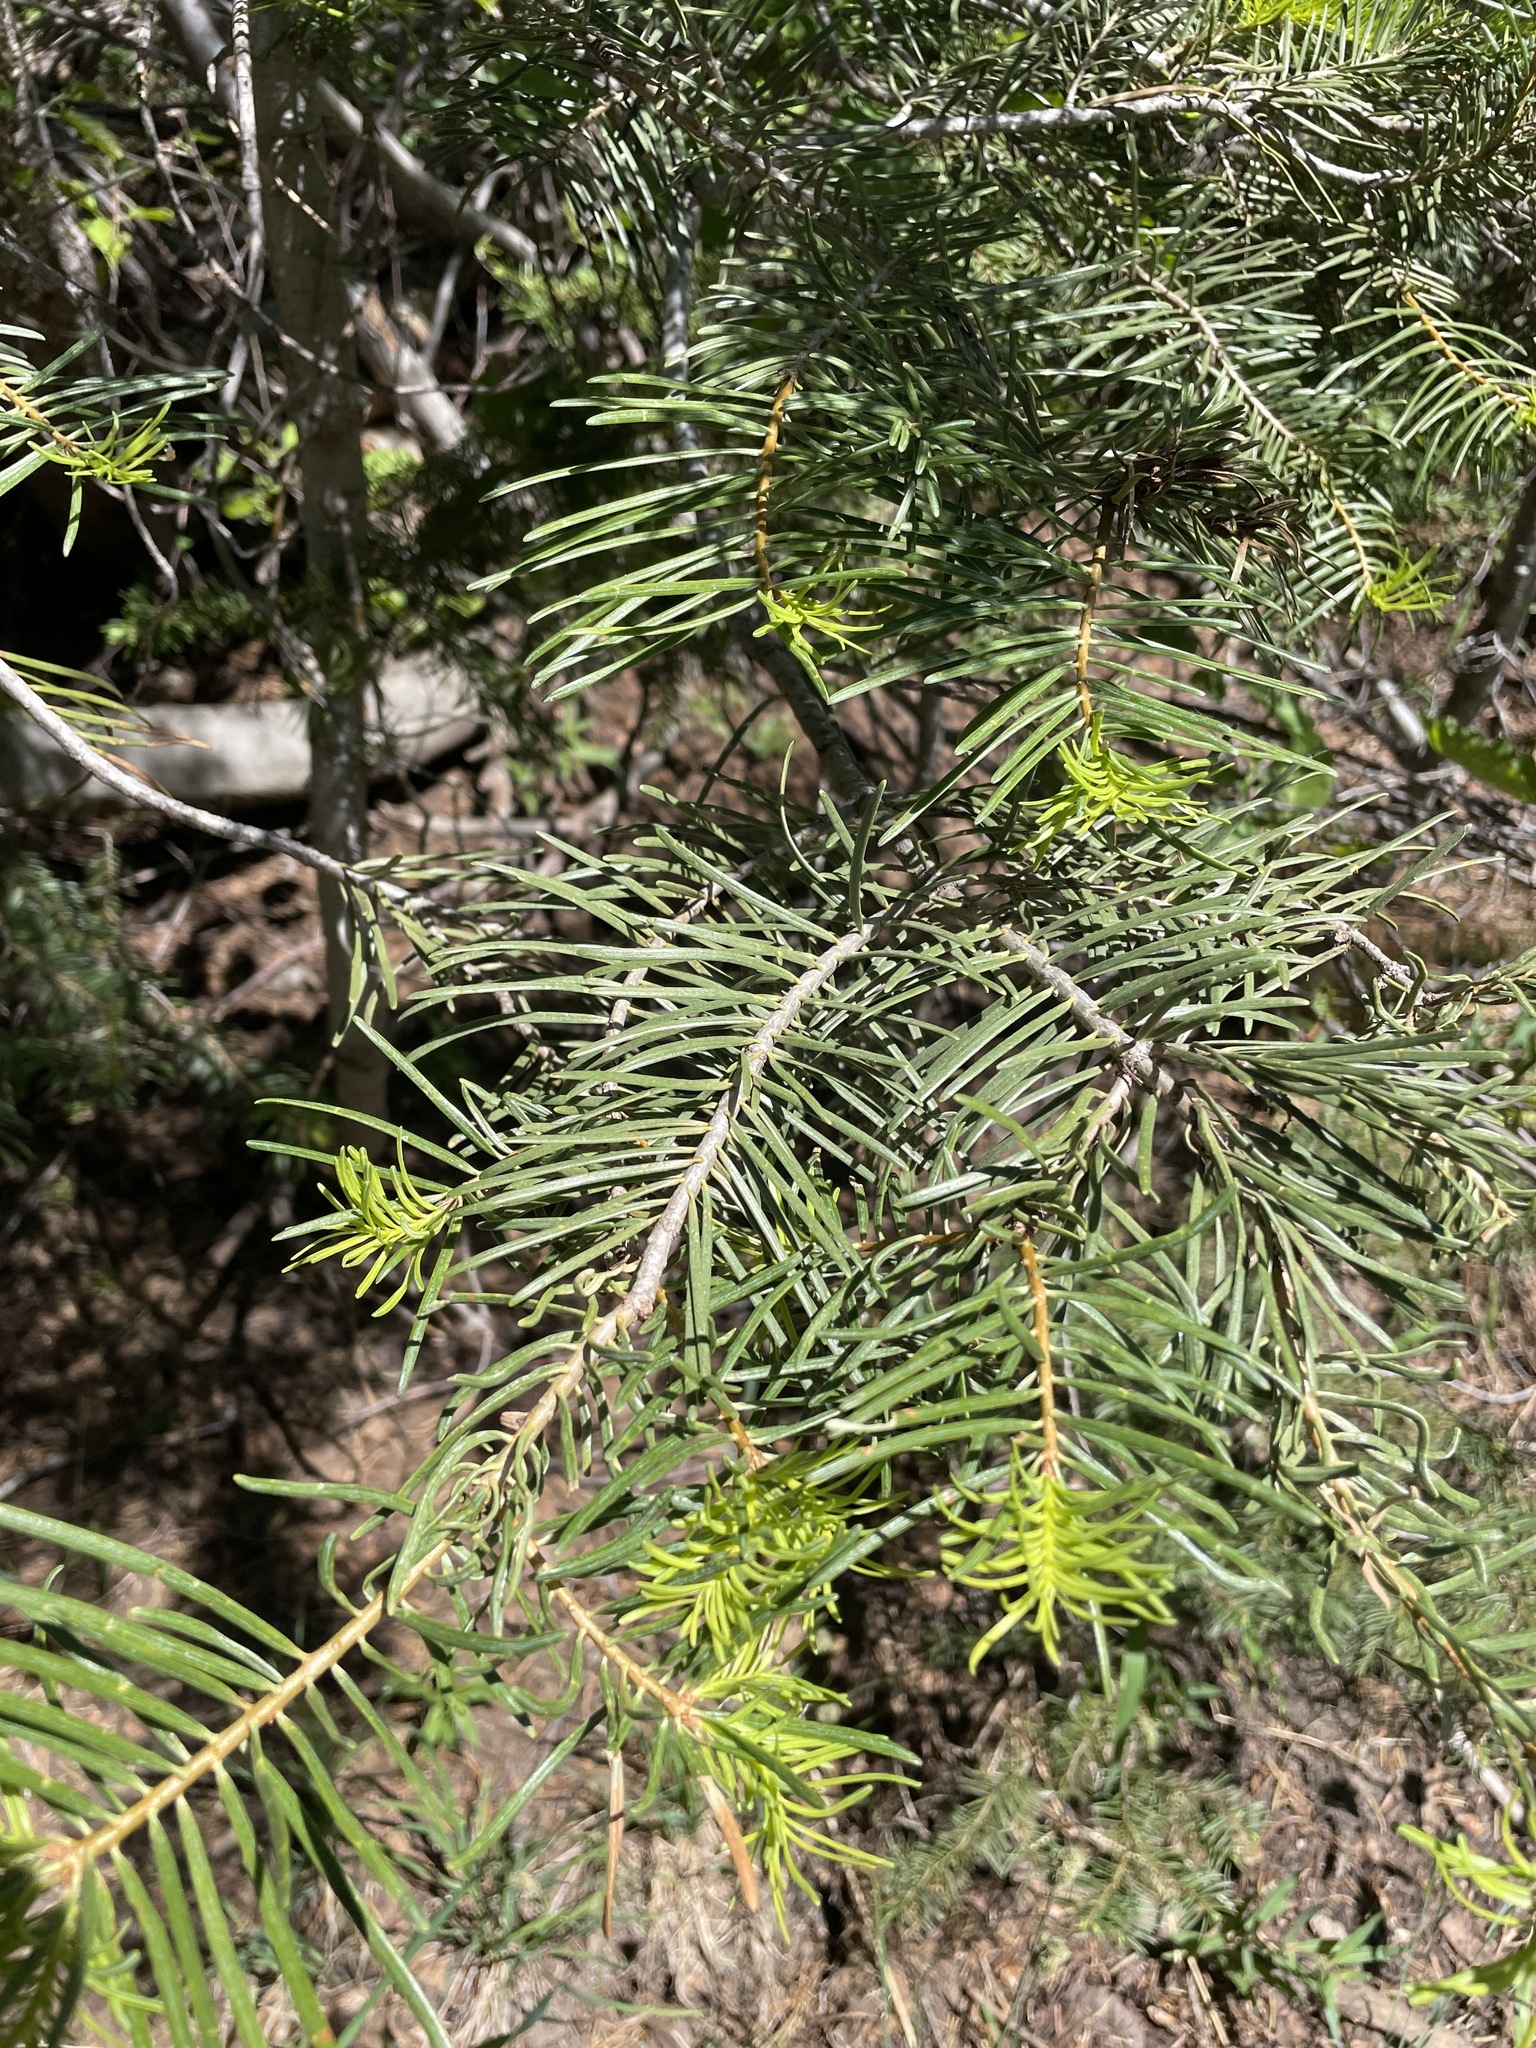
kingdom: Plantae
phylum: Tracheophyta
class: Pinopsida
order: Pinales
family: Pinaceae
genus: Abies
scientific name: Abies concolor
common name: Colorado fir
